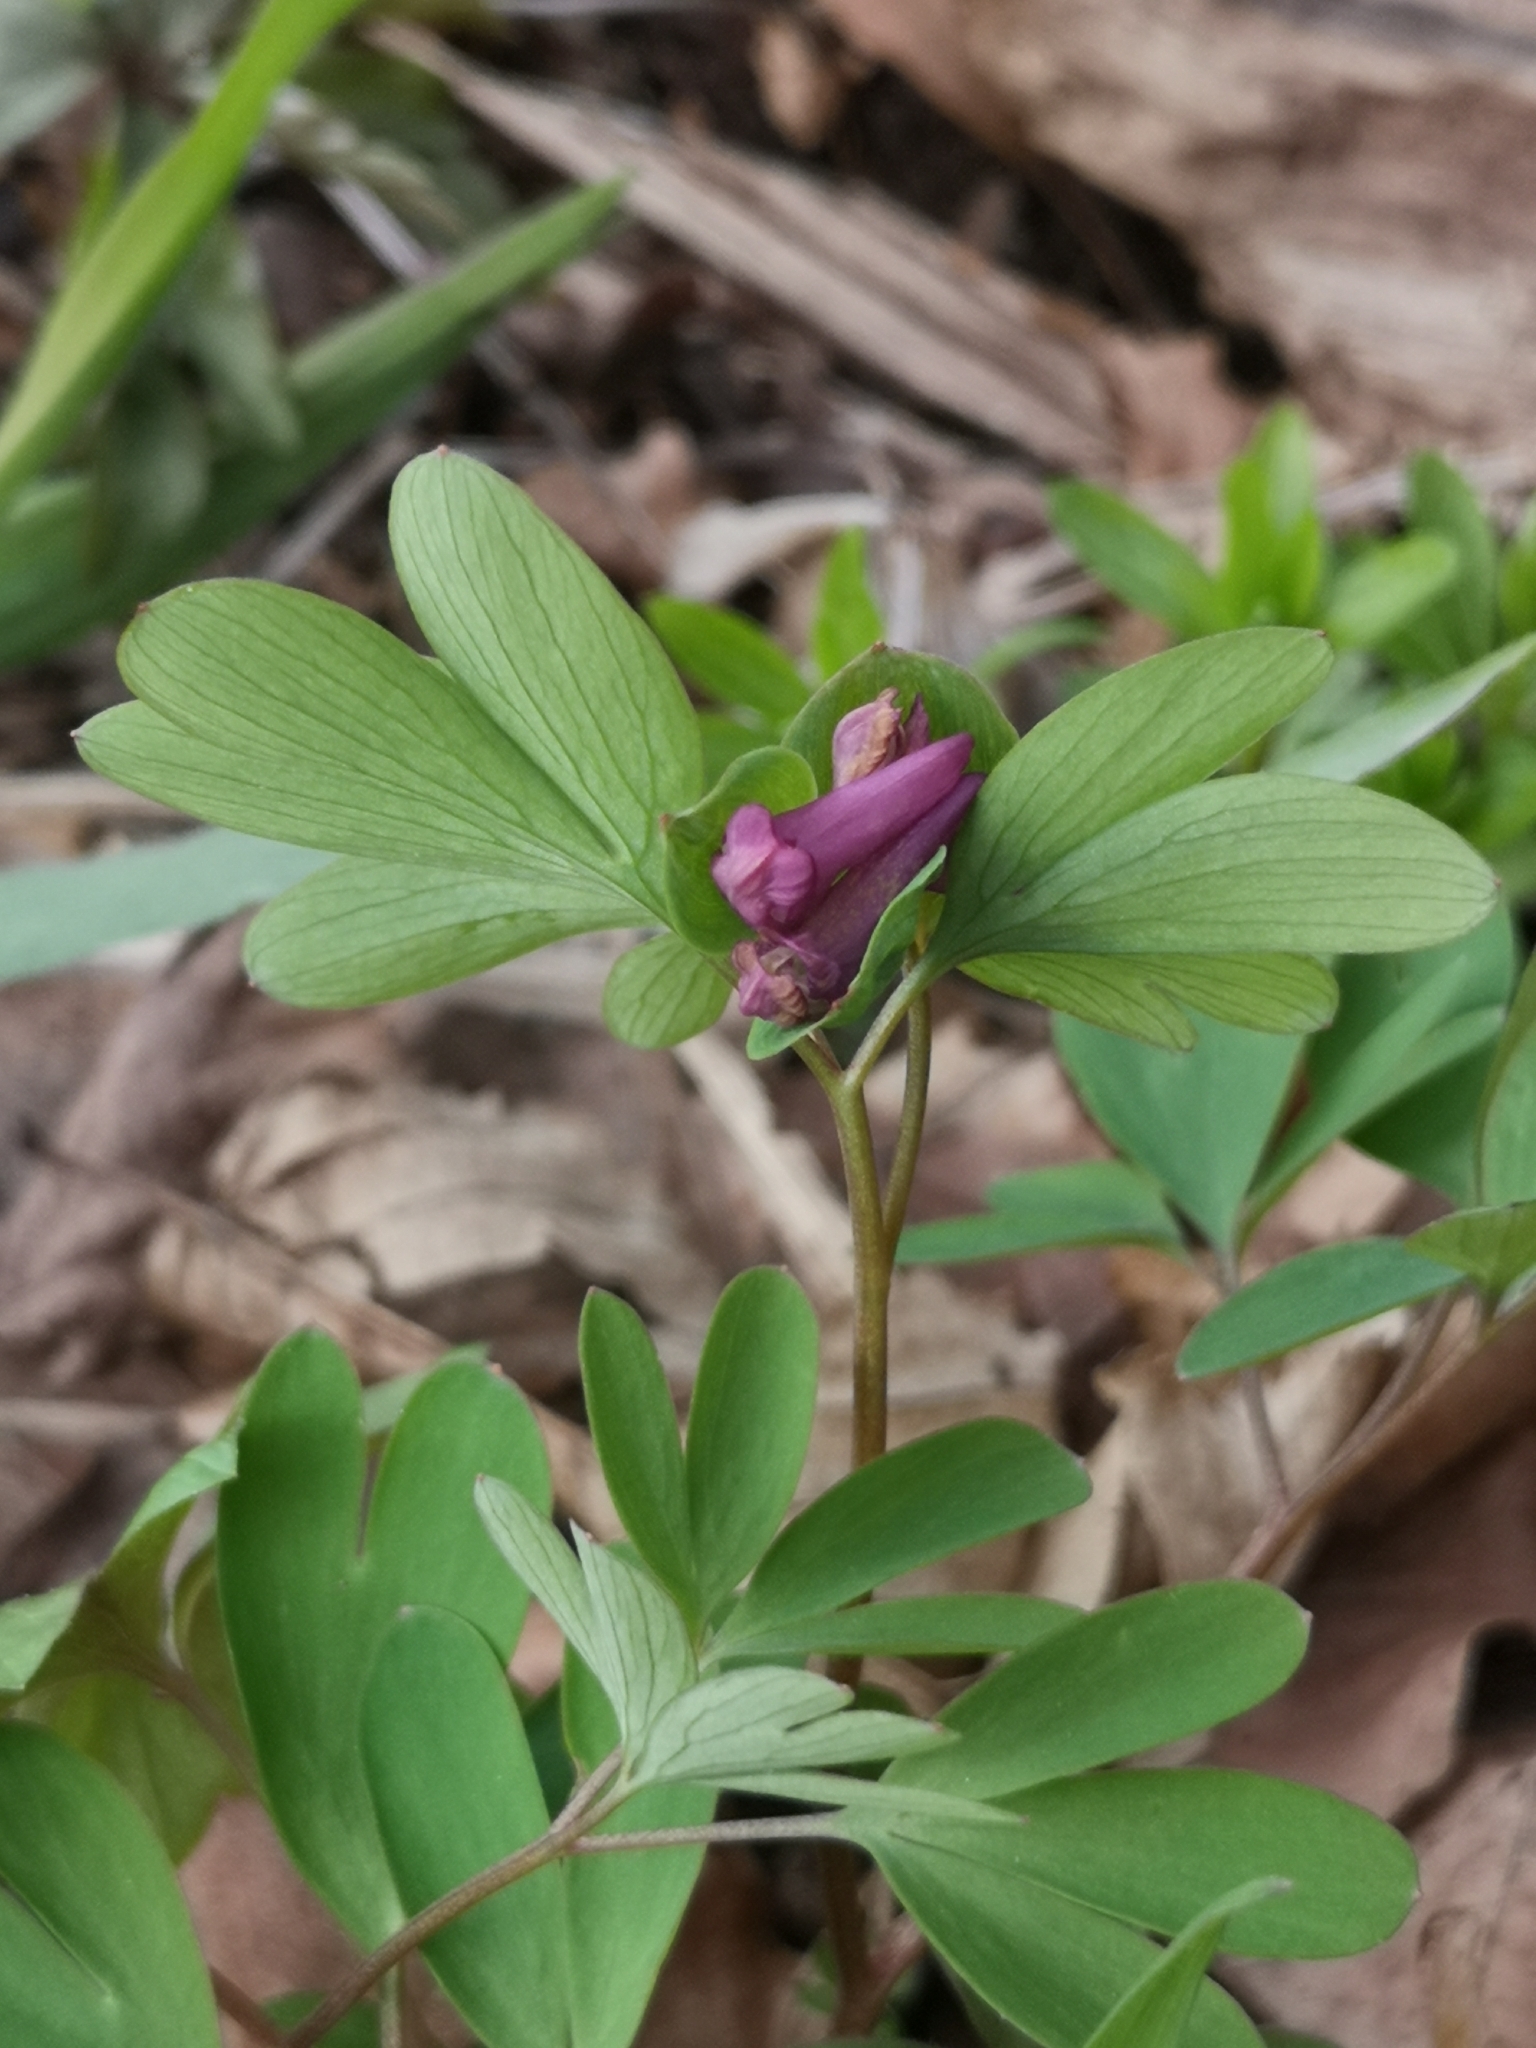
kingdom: Plantae
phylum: Tracheophyta
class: Magnoliopsida
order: Ranunculales
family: Papaveraceae
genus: Corydalis
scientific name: Corydalis intermedia
